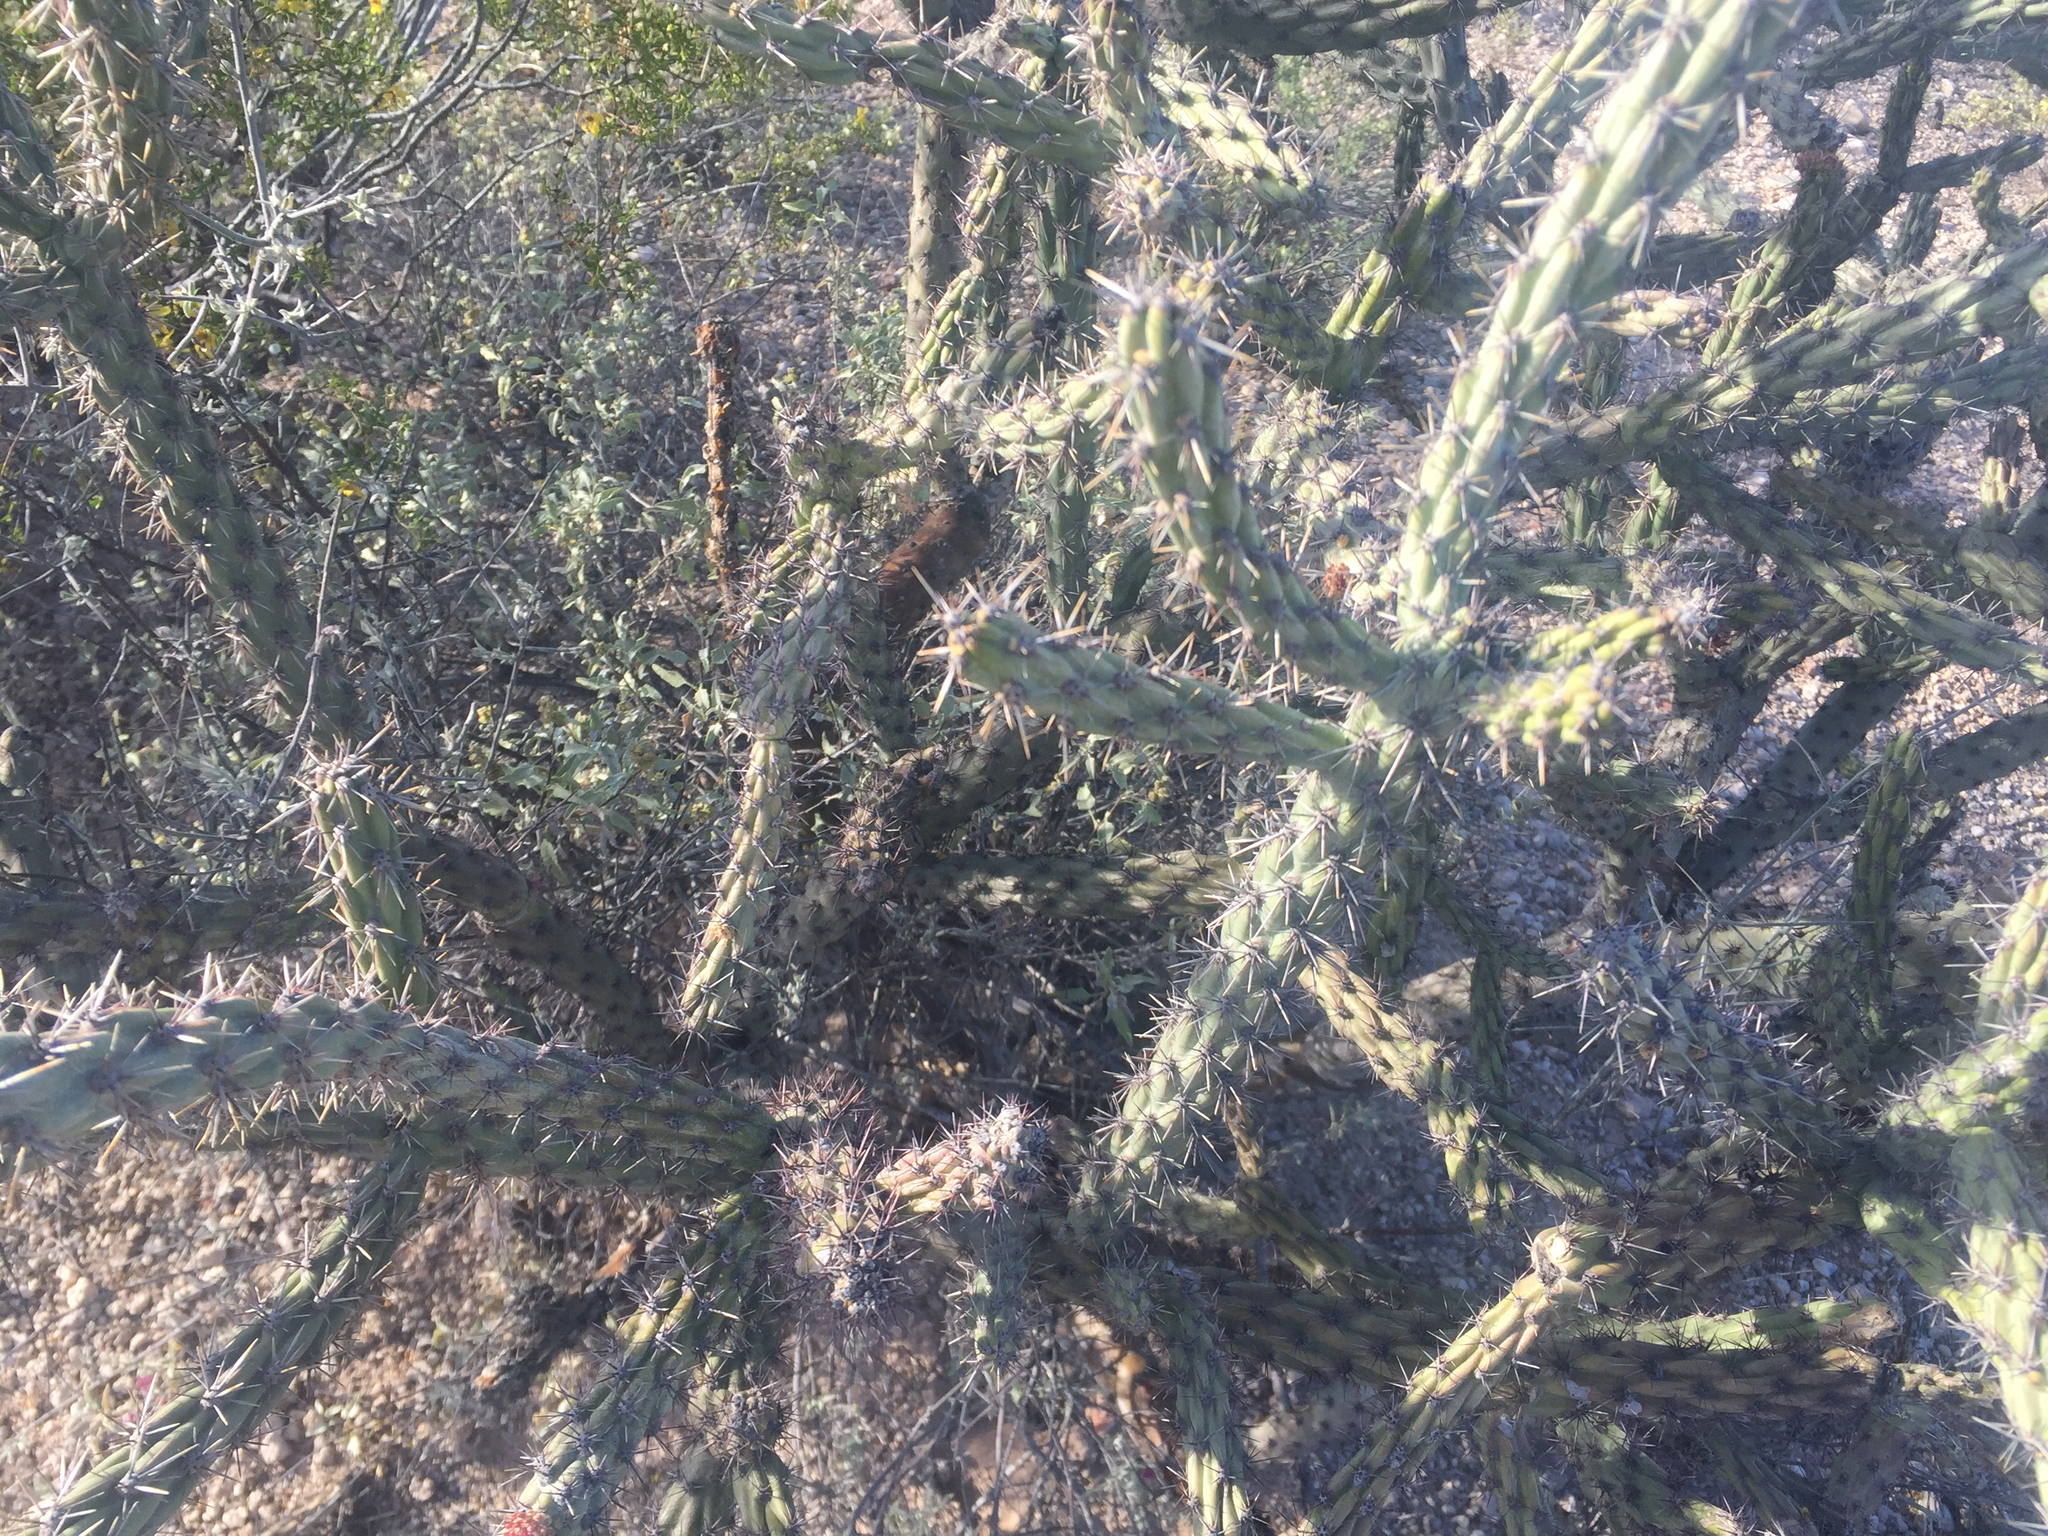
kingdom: Plantae
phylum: Tracheophyta
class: Magnoliopsida
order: Caryophyllales
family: Cactaceae
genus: Cylindropuntia
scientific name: Cylindropuntia acanthocarpa
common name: Buckhorn cholla
